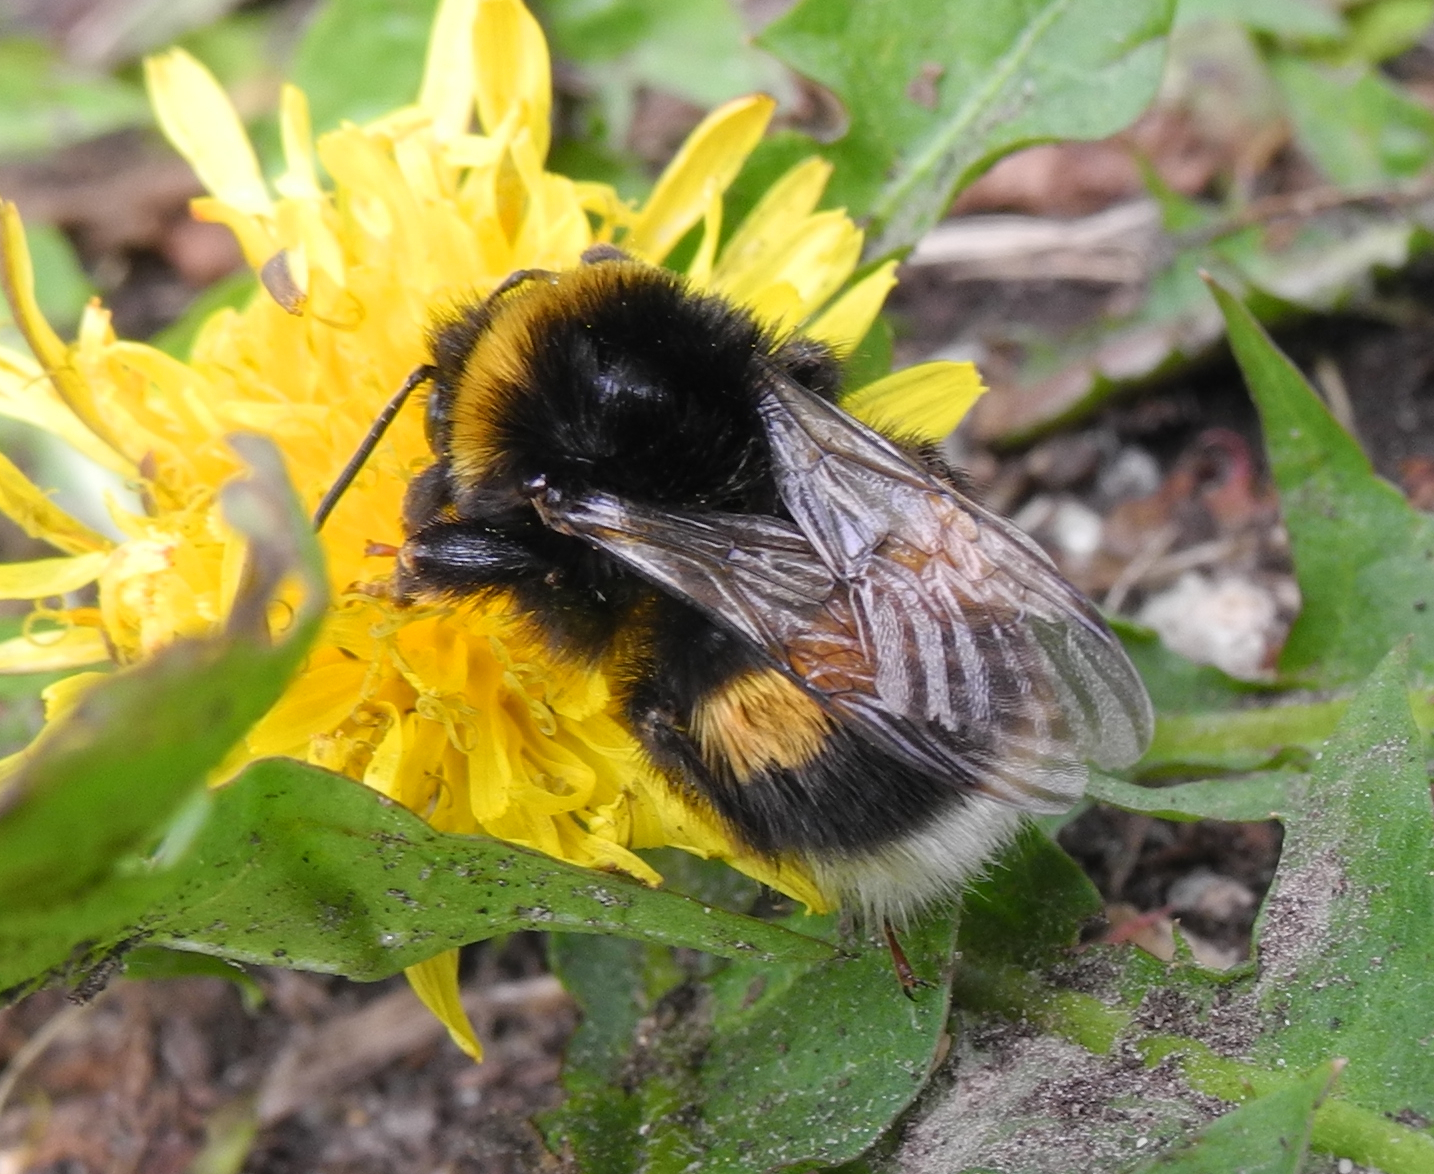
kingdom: Animalia
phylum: Arthropoda
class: Insecta
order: Hymenoptera
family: Apidae
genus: Bombus
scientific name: Bombus terrestris
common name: Buff-tailed bumblebee
